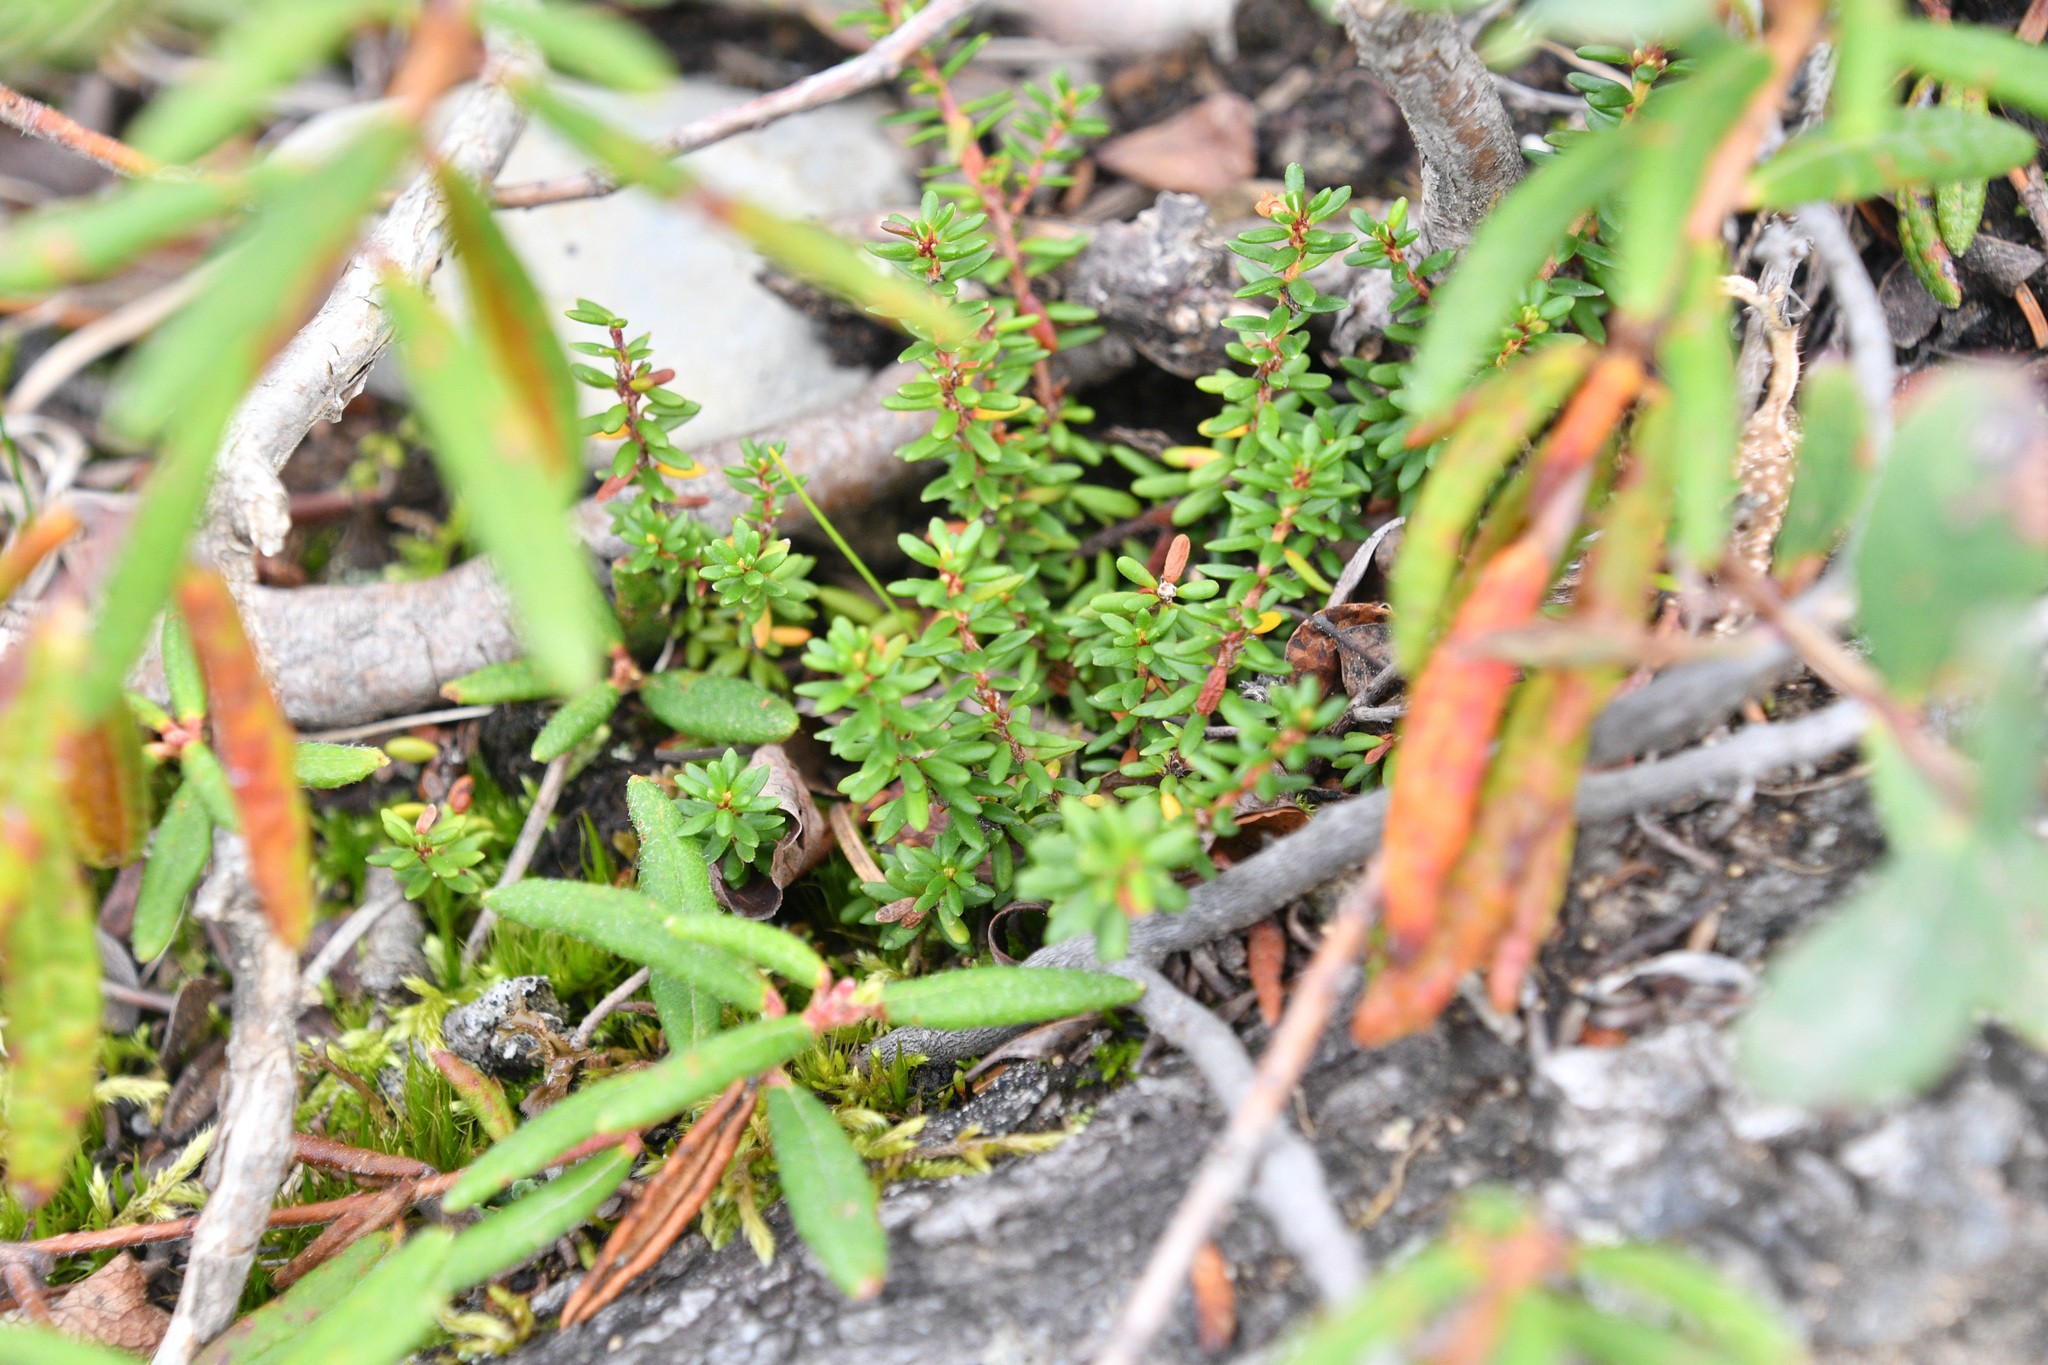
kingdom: Plantae
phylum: Tracheophyta
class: Magnoliopsida
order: Ericales
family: Ericaceae
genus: Empetrum
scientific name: Empetrum nigrum
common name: Black crowberry
